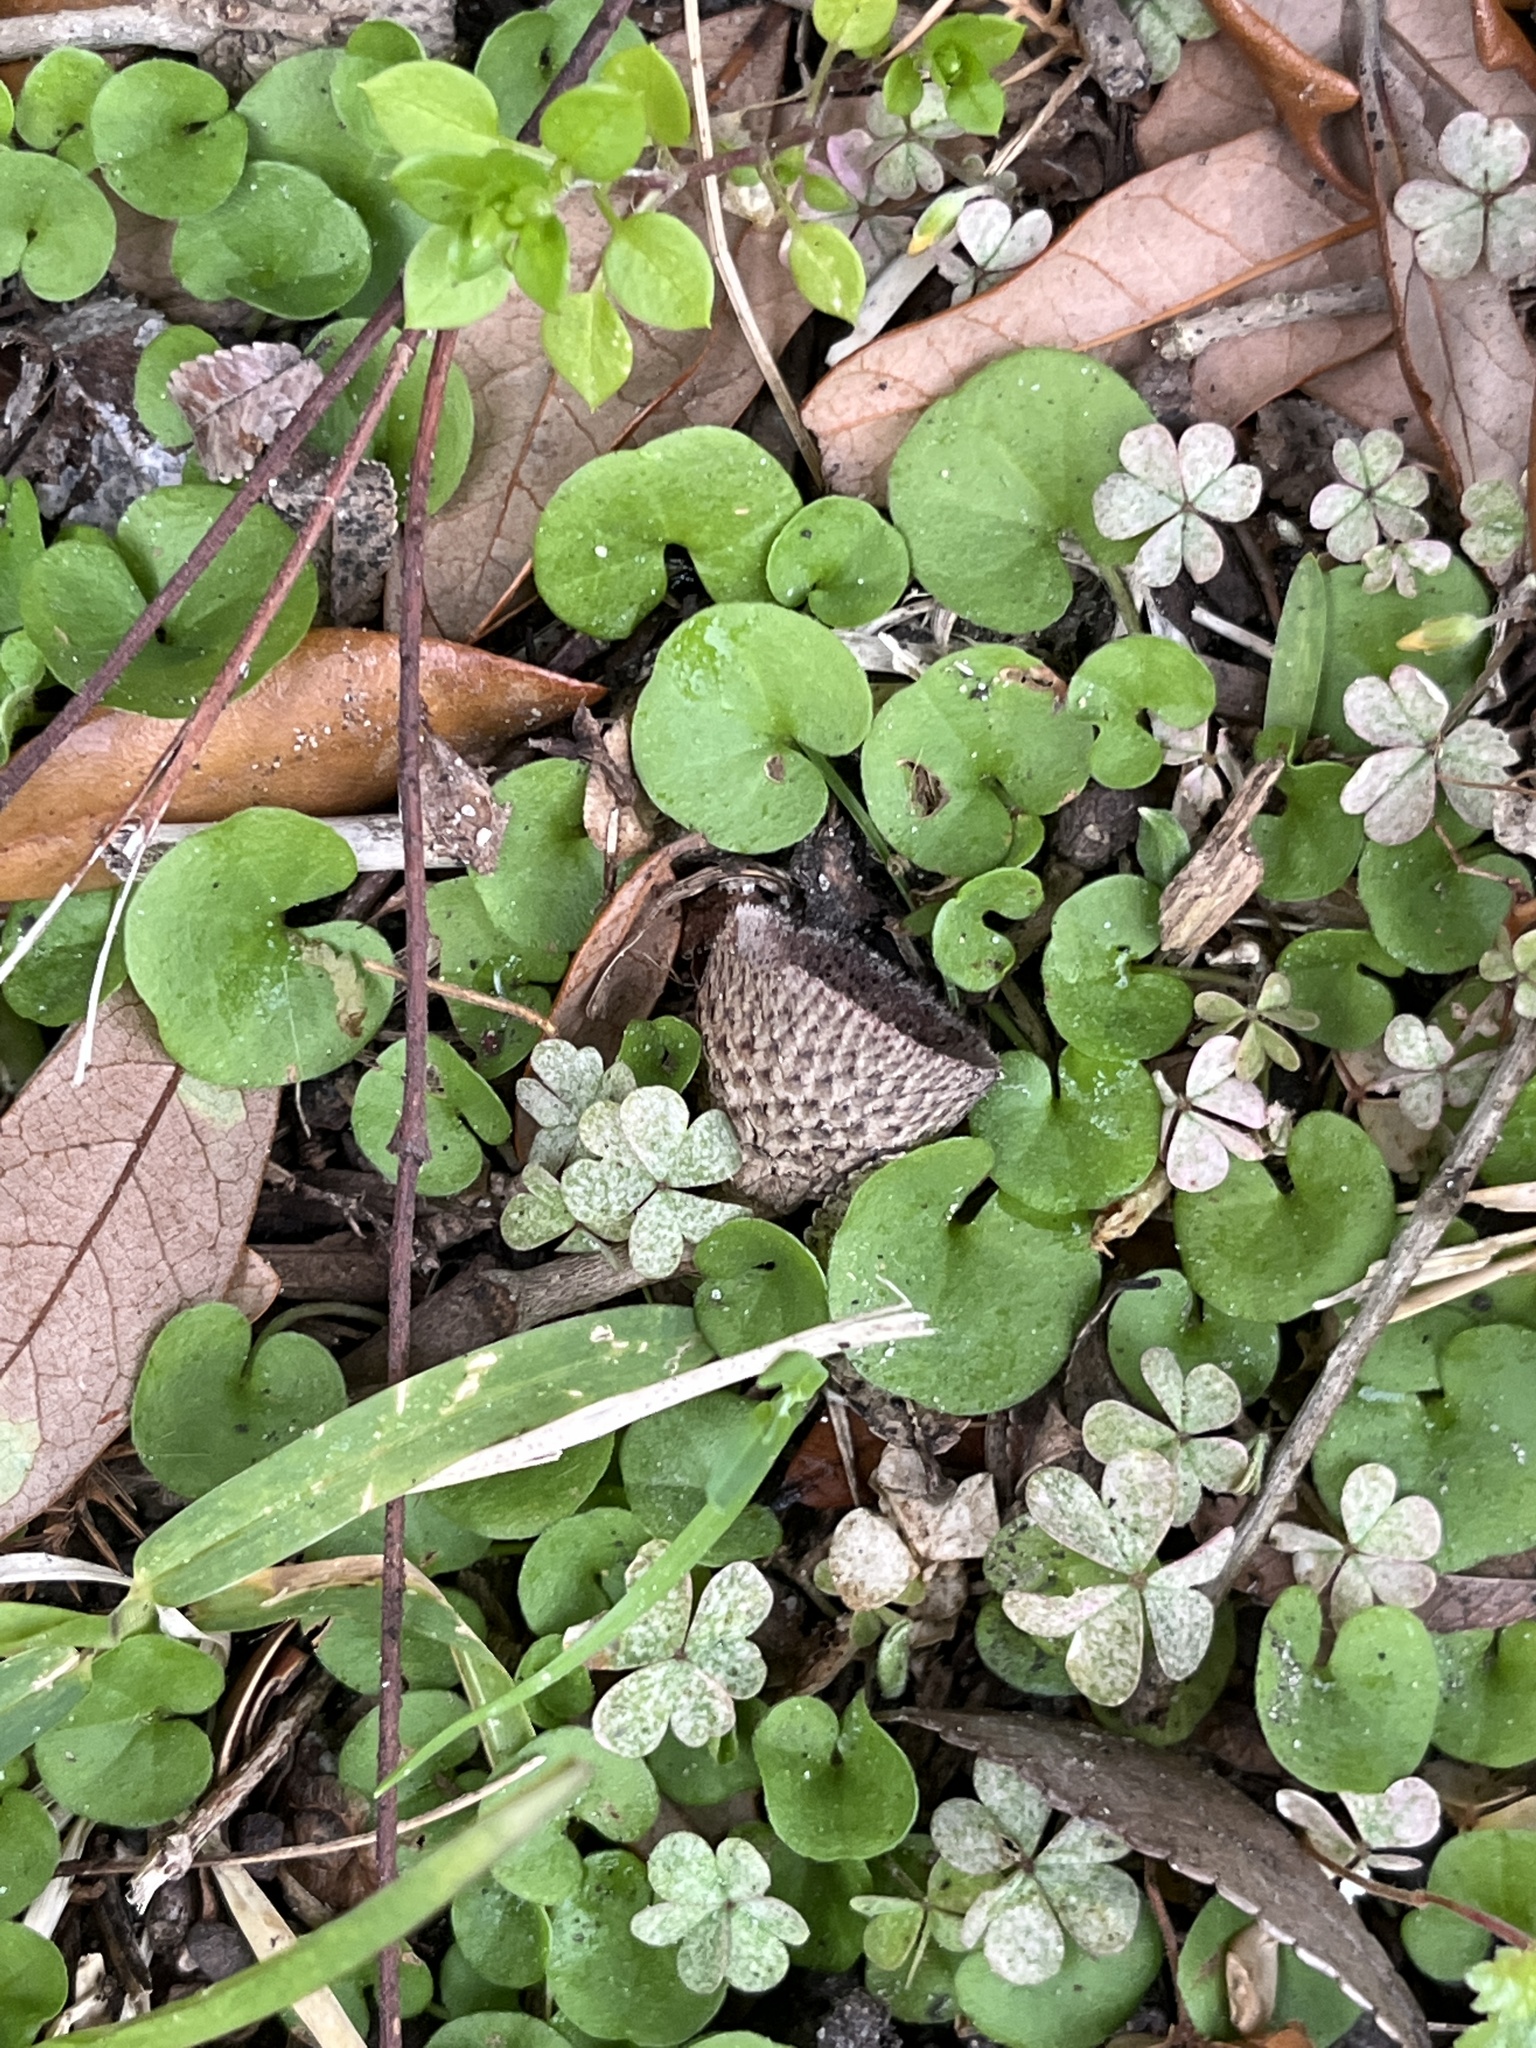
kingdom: Plantae
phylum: Tracheophyta
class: Magnoliopsida
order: Solanales
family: Convolvulaceae
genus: Dichondra
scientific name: Dichondra carolinensis
